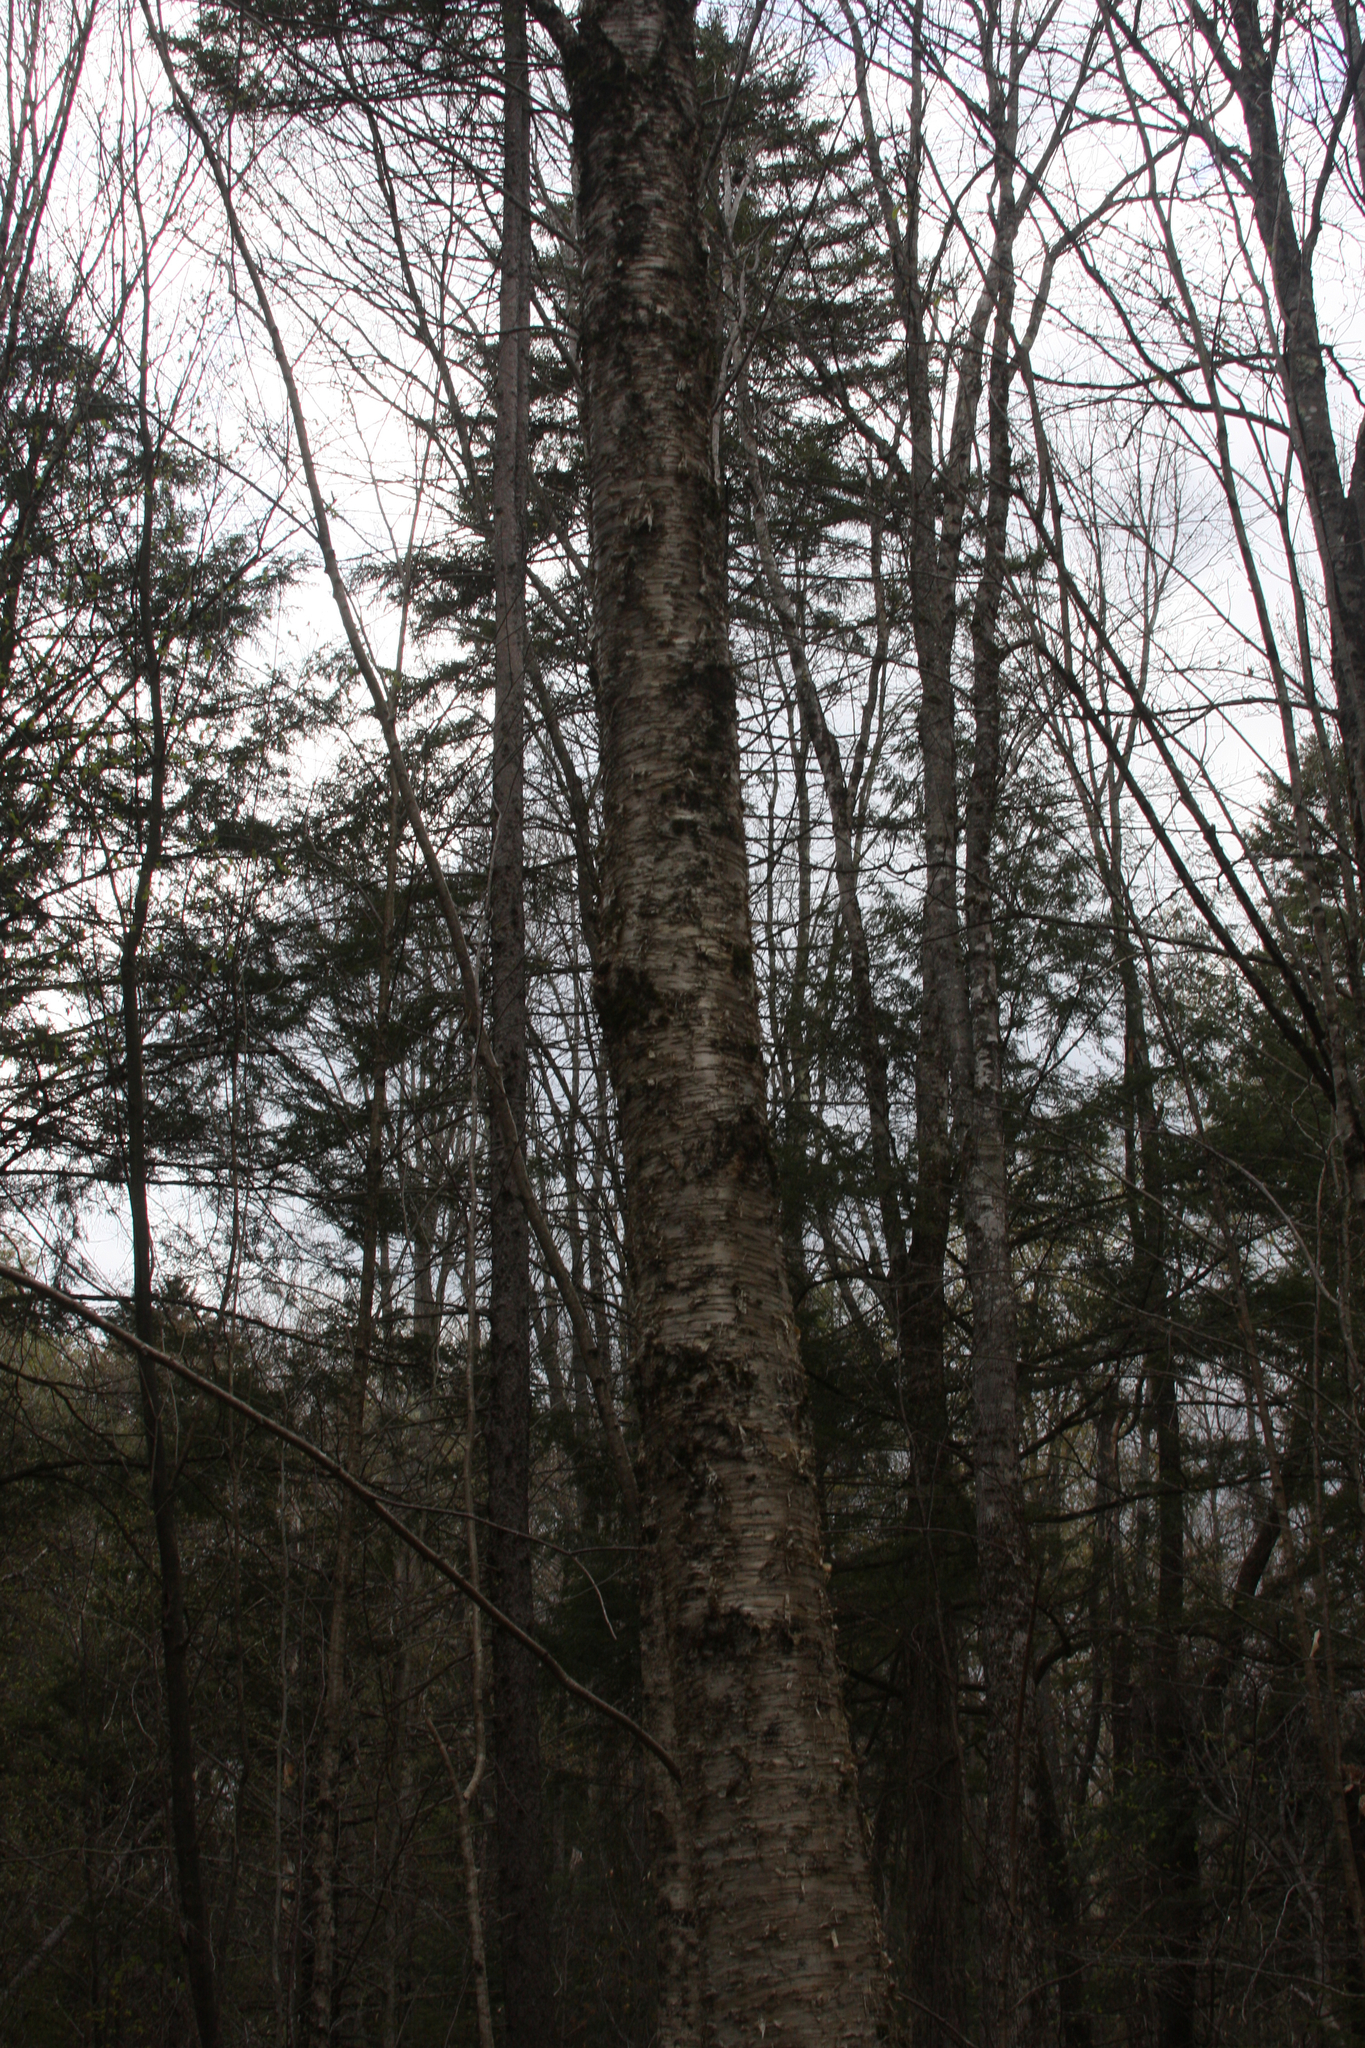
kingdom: Plantae
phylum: Tracheophyta
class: Magnoliopsida
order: Fagales
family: Betulaceae
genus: Betula
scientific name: Betula alleghaniensis
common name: Yellow birch
